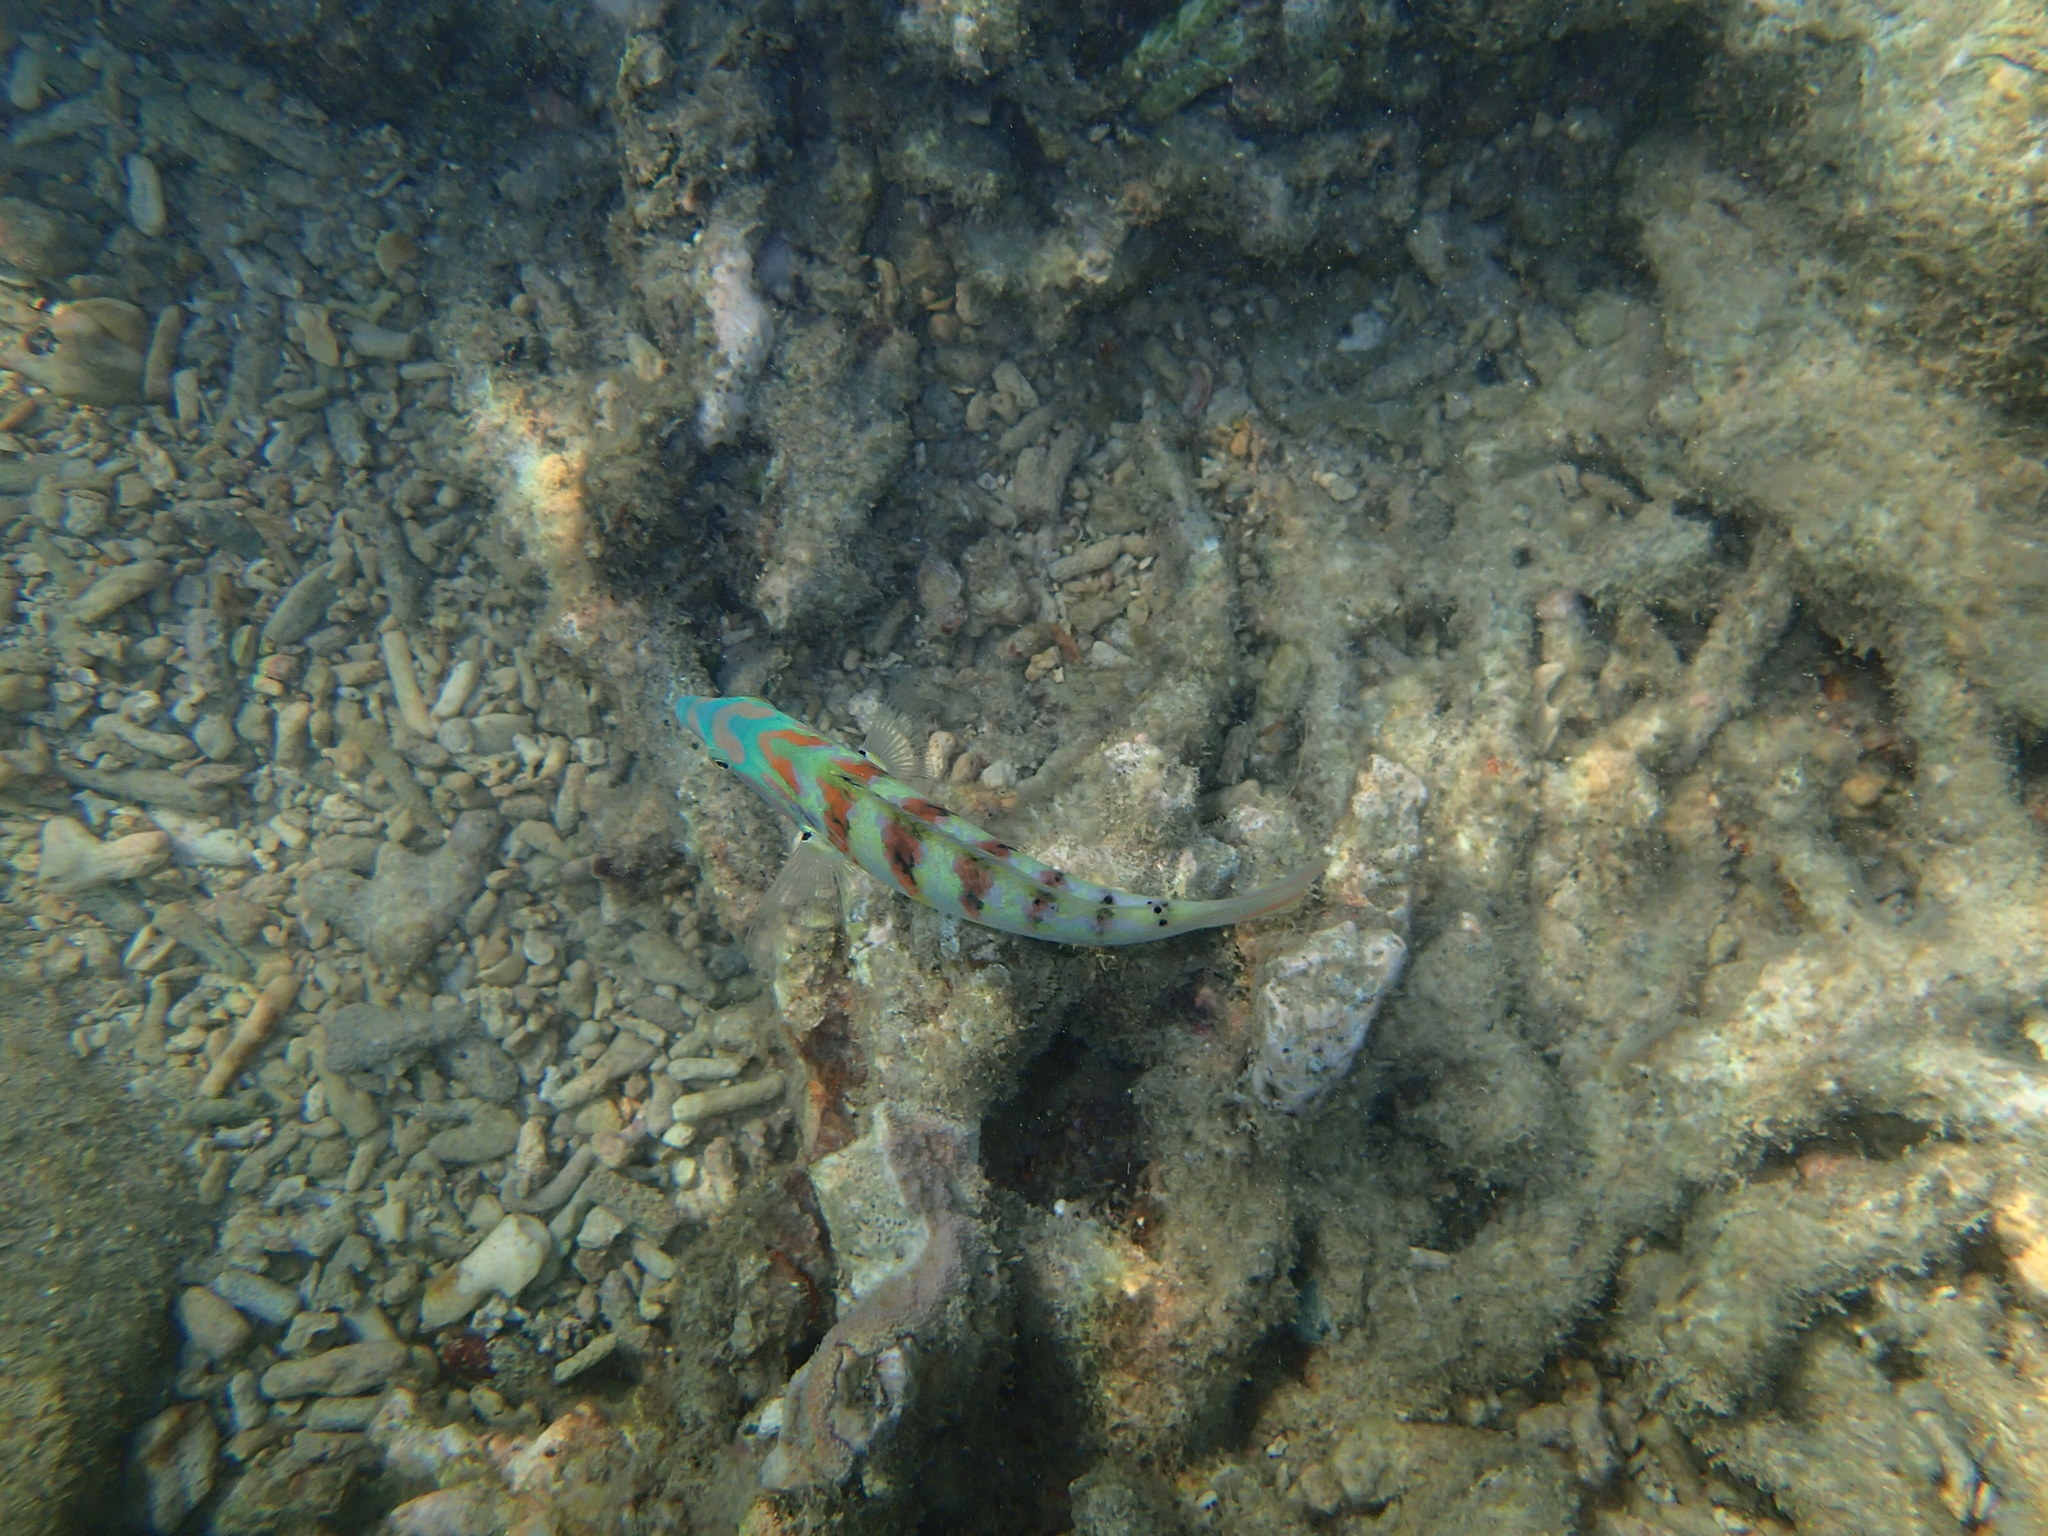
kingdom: Animalia
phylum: Chordata
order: Perciformes
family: Labridae
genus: Thalassoma
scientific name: Thalassoma hardwicke
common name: Sixbar wrasse
